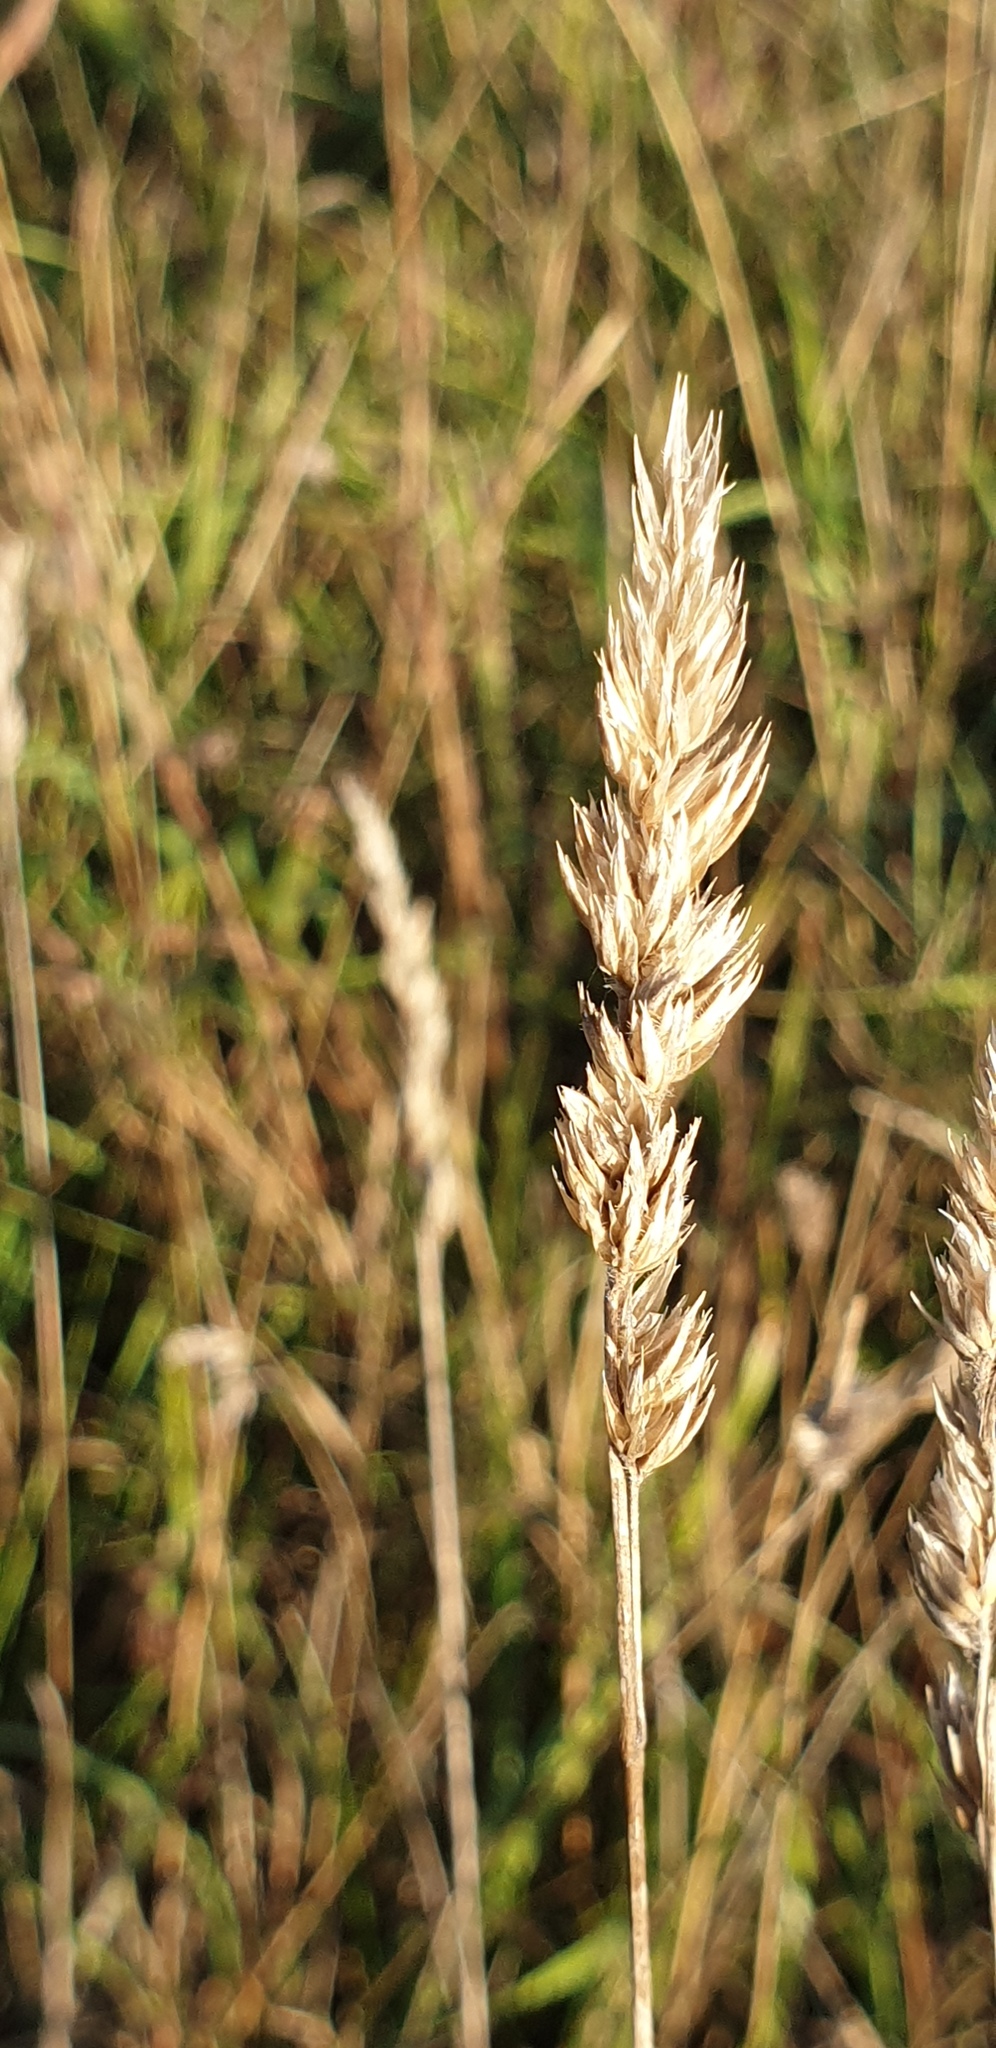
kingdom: Plantae
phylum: Tracheophyta
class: Liliopsida
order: Poales
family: Poaceae
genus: Dactylis
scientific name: Dactylis glomerata
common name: Orchardgrass
